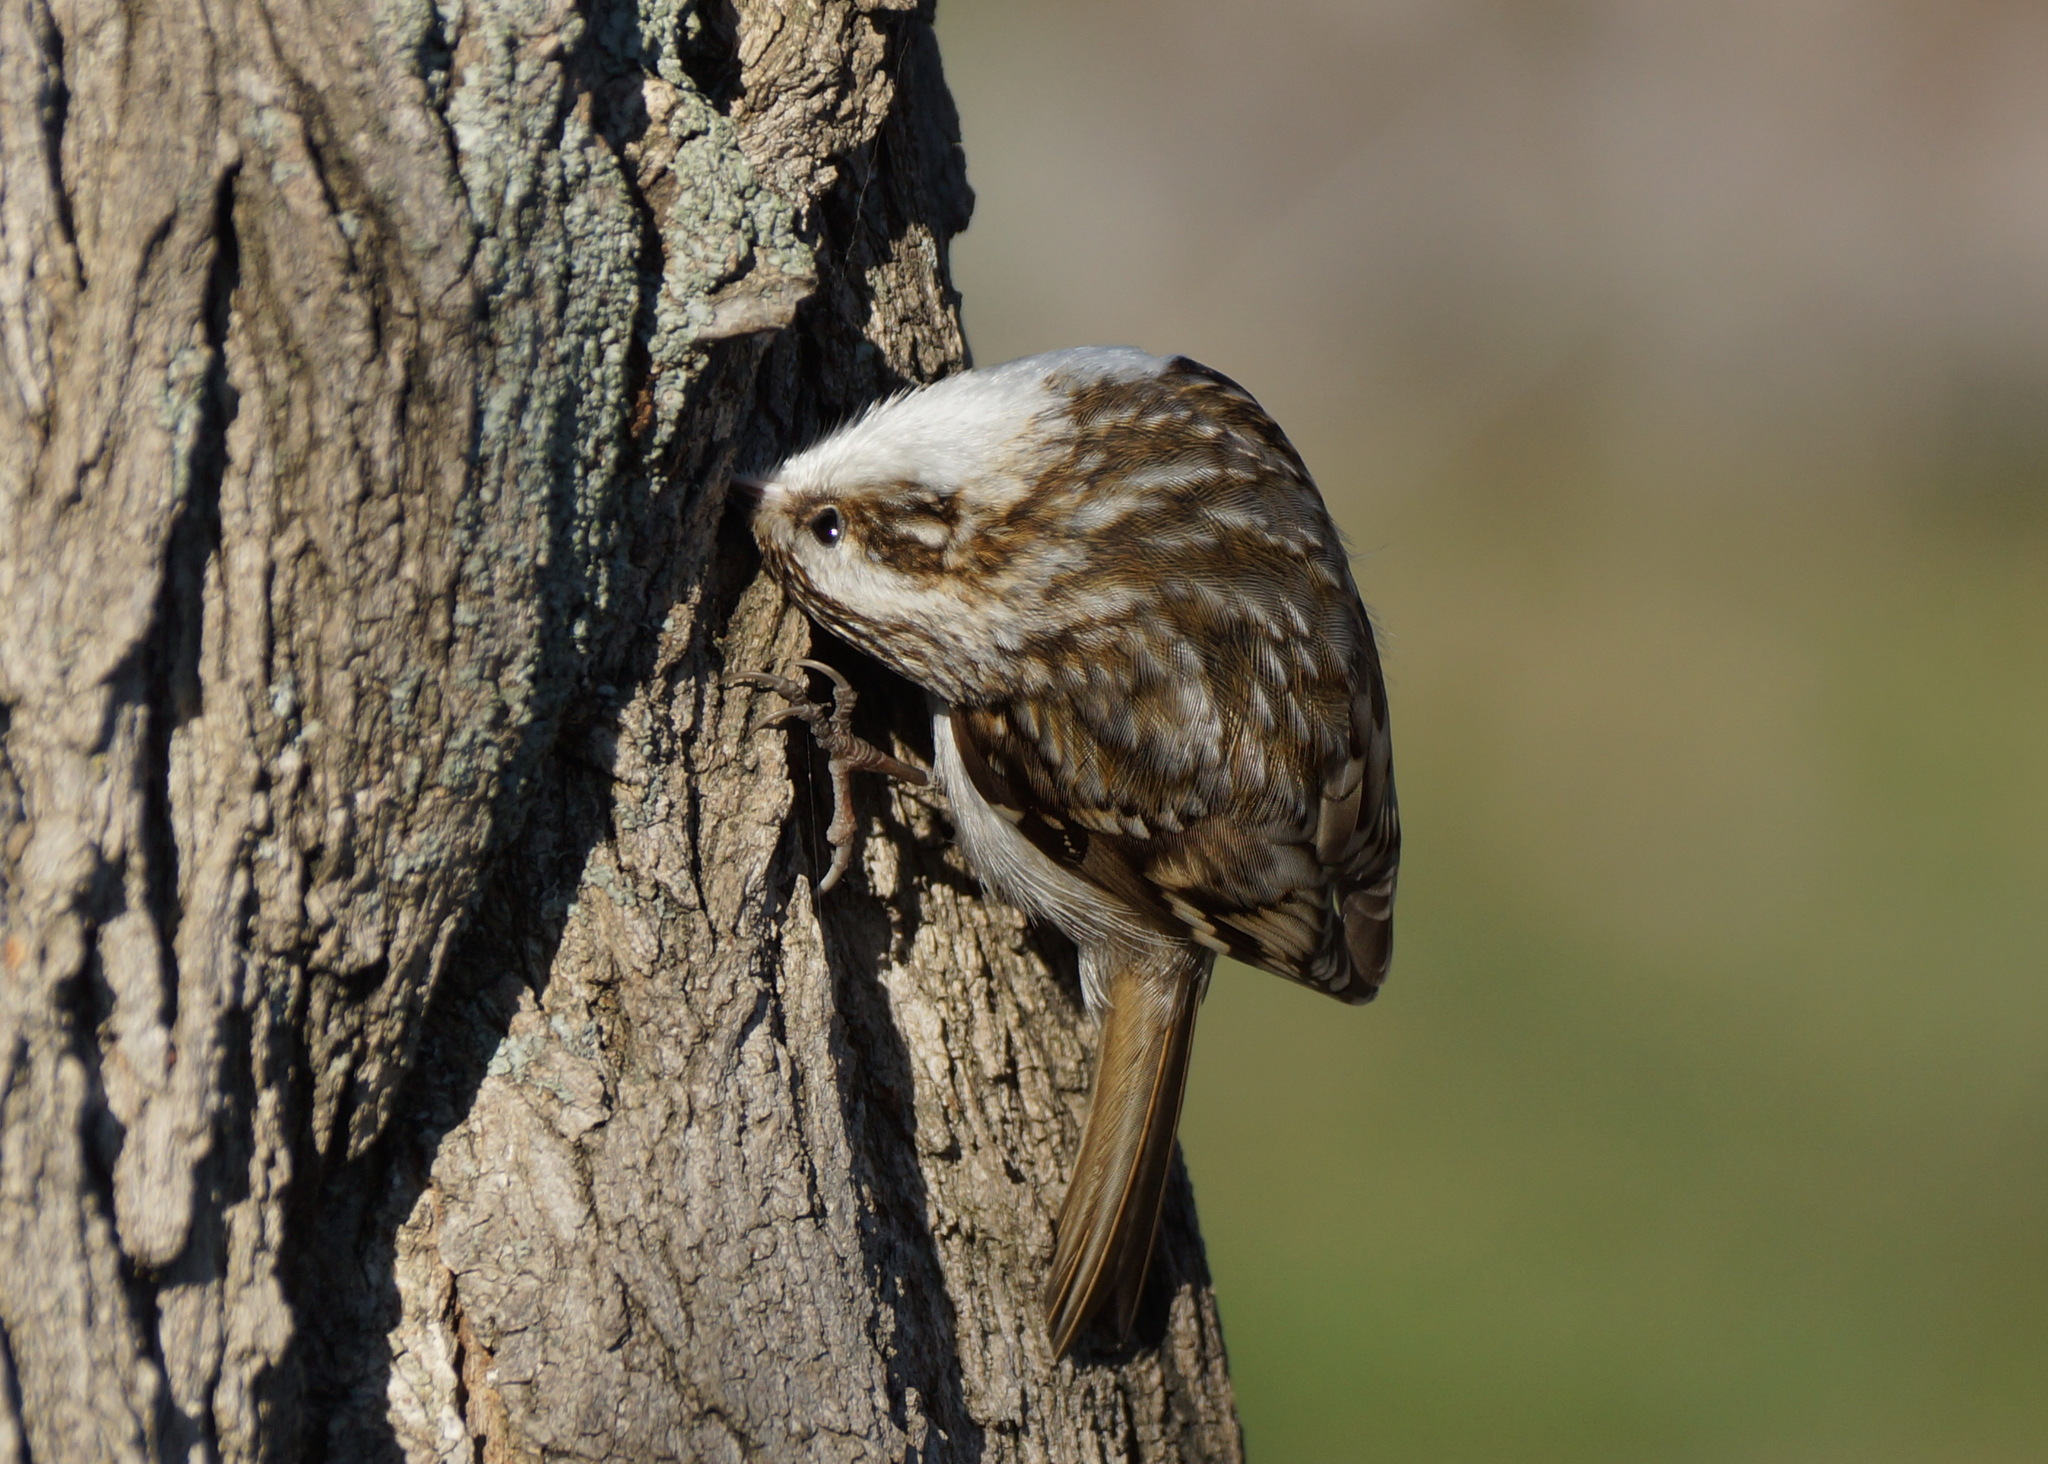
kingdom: Animalia
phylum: Chordata
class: Aves
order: Passeriformes
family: Certhiidae
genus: Certhia
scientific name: Certhia familiaris
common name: Eurasian treecreeper
